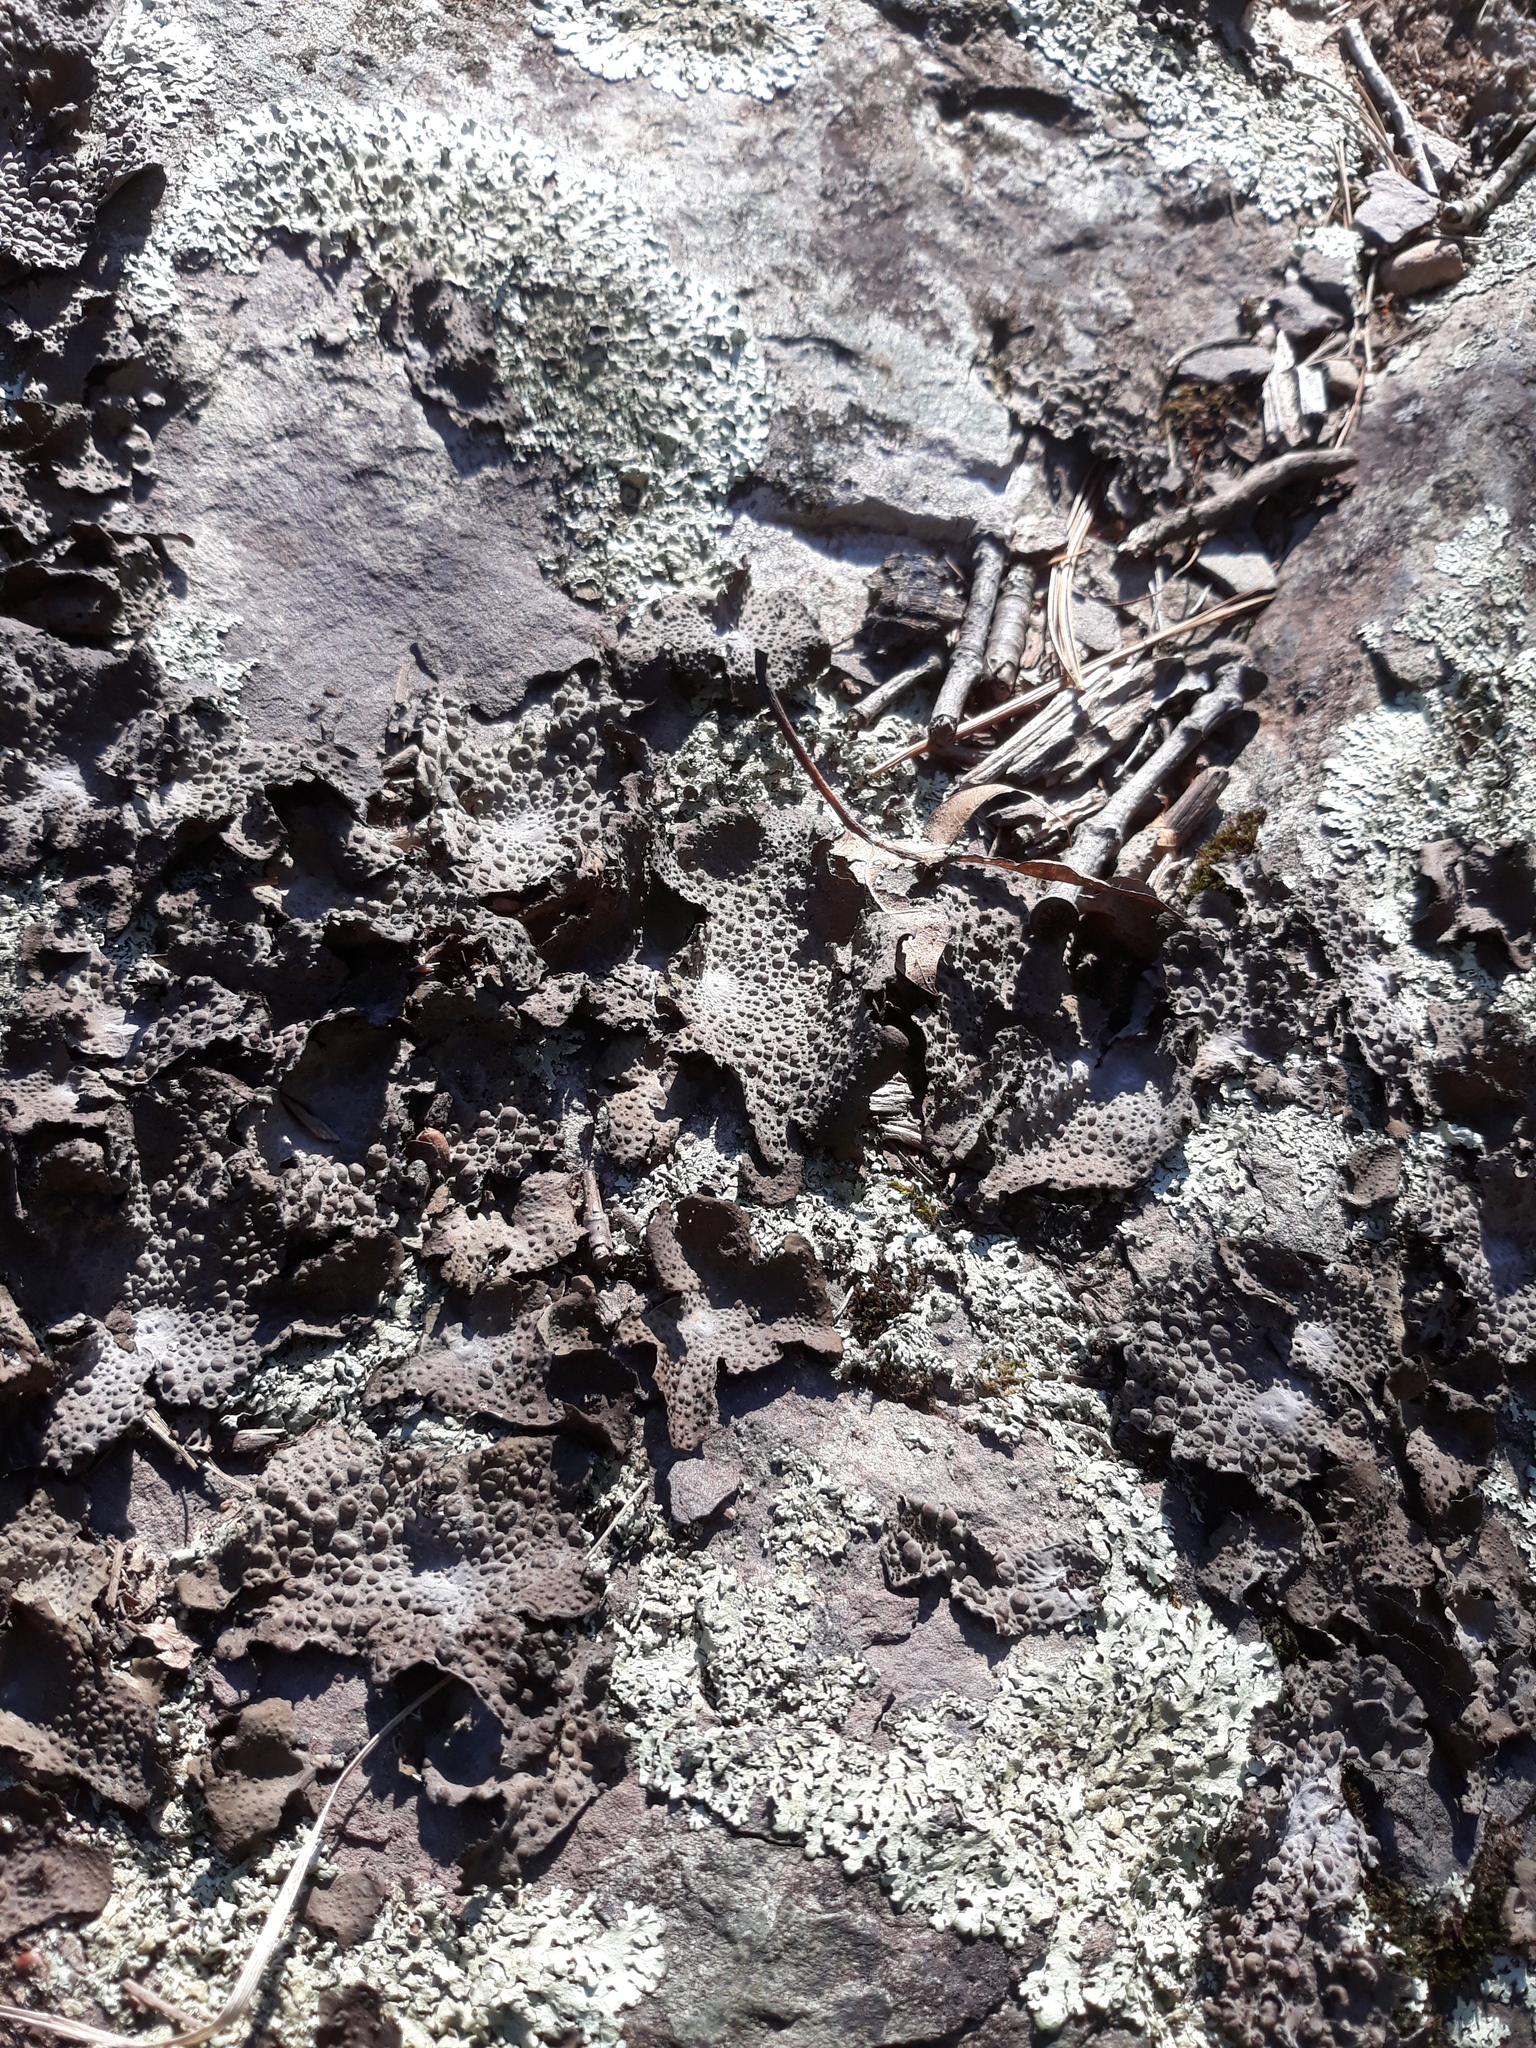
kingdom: Fungi
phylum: Ascomycota
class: Lecanoromycetes
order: Umbilicariales
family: Umbilicariaceae
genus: Lasallia
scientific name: Lasallia papulosa
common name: Common toadskin lichen
